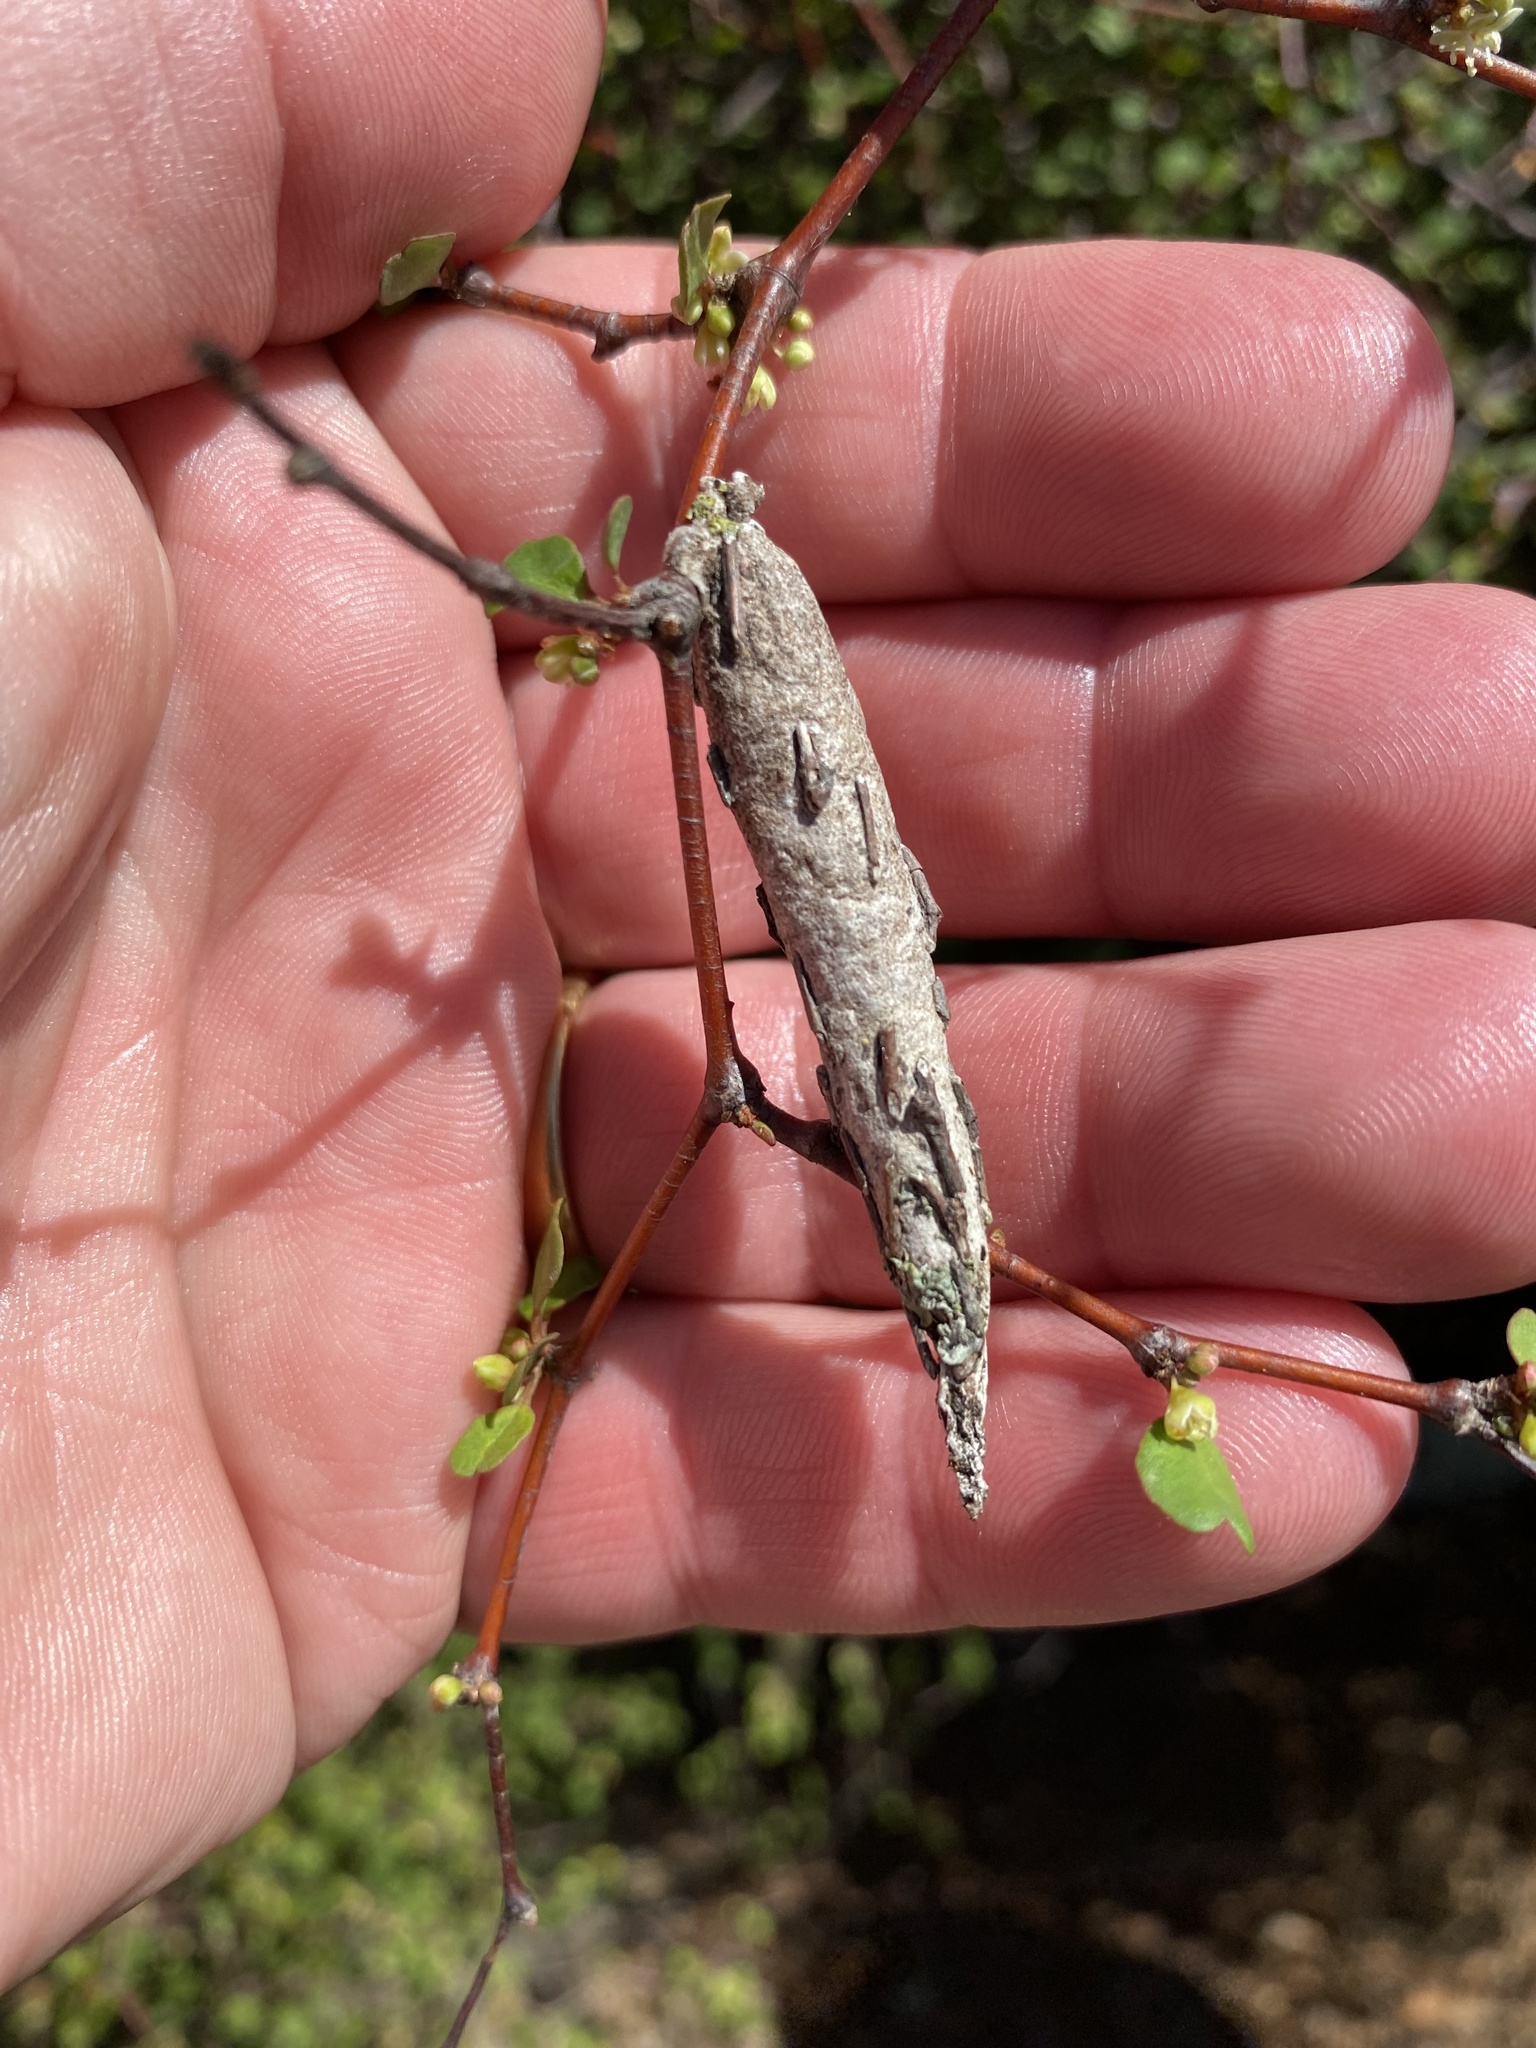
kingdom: Animalia
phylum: Arthropoda
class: Insecta
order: Lepidoptera
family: Psychidae
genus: Liothula
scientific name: Liothula omnivora
